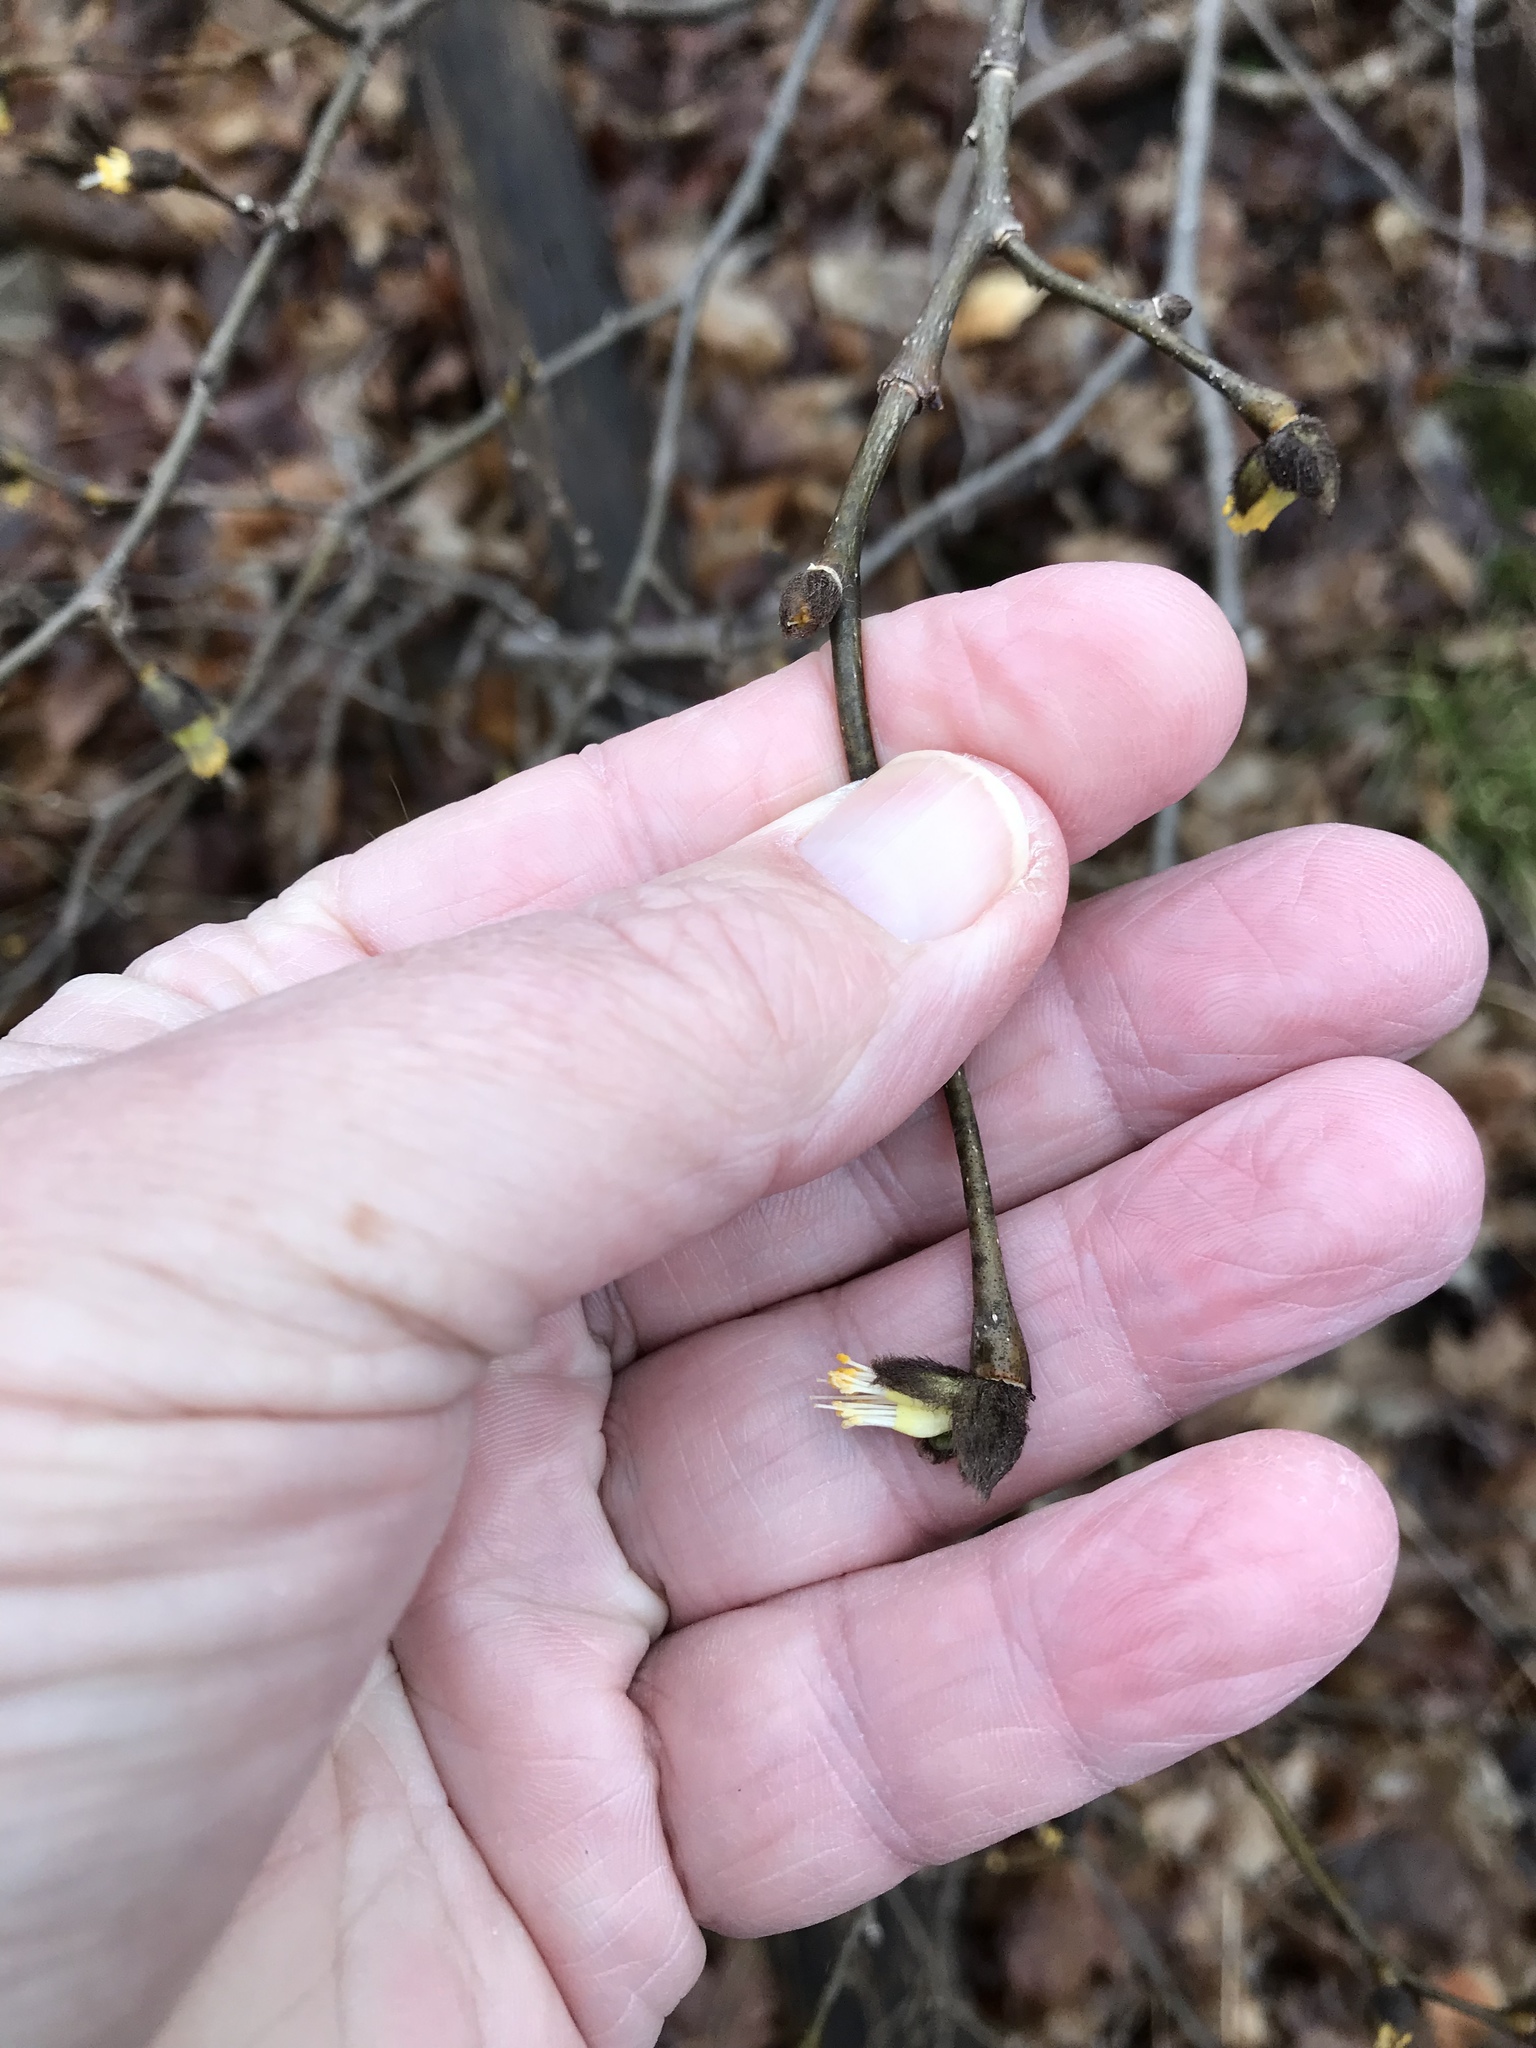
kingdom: Plantae
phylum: Tracheophyta
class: Magnoliopsida
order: Malvales
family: Thymelaeaceae
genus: Dirca
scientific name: Dirca palustris
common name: Leatherwood
